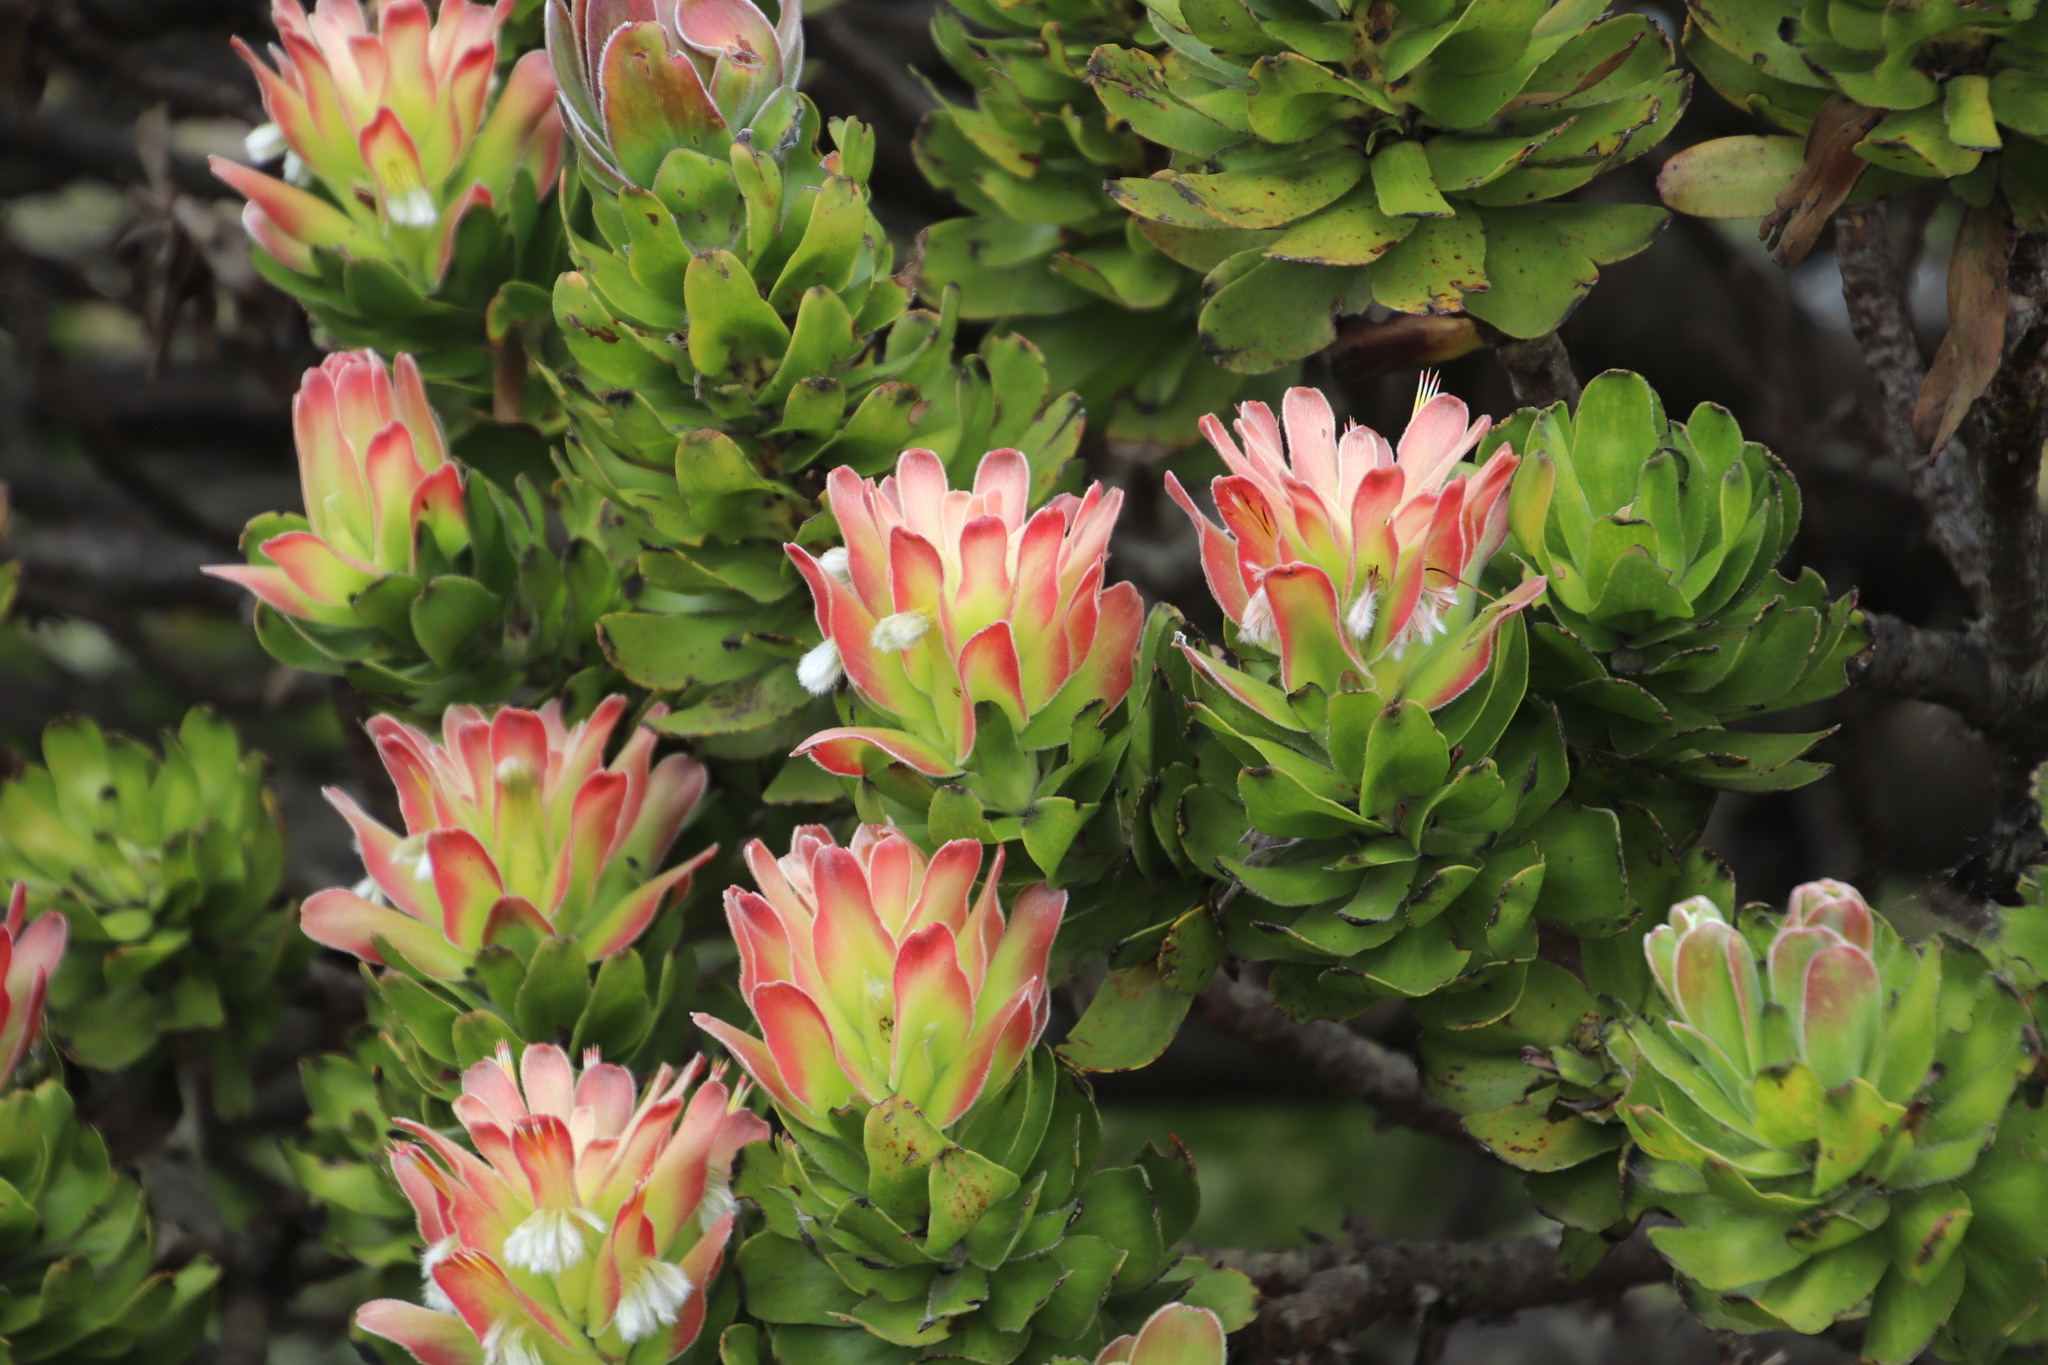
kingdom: Plantae
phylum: Tracheophyta
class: Magnoliopsida
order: Proteales
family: Proteaceae
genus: Mimetes
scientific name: Mimetes fimbriifolius
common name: Fringed bottlebrush
